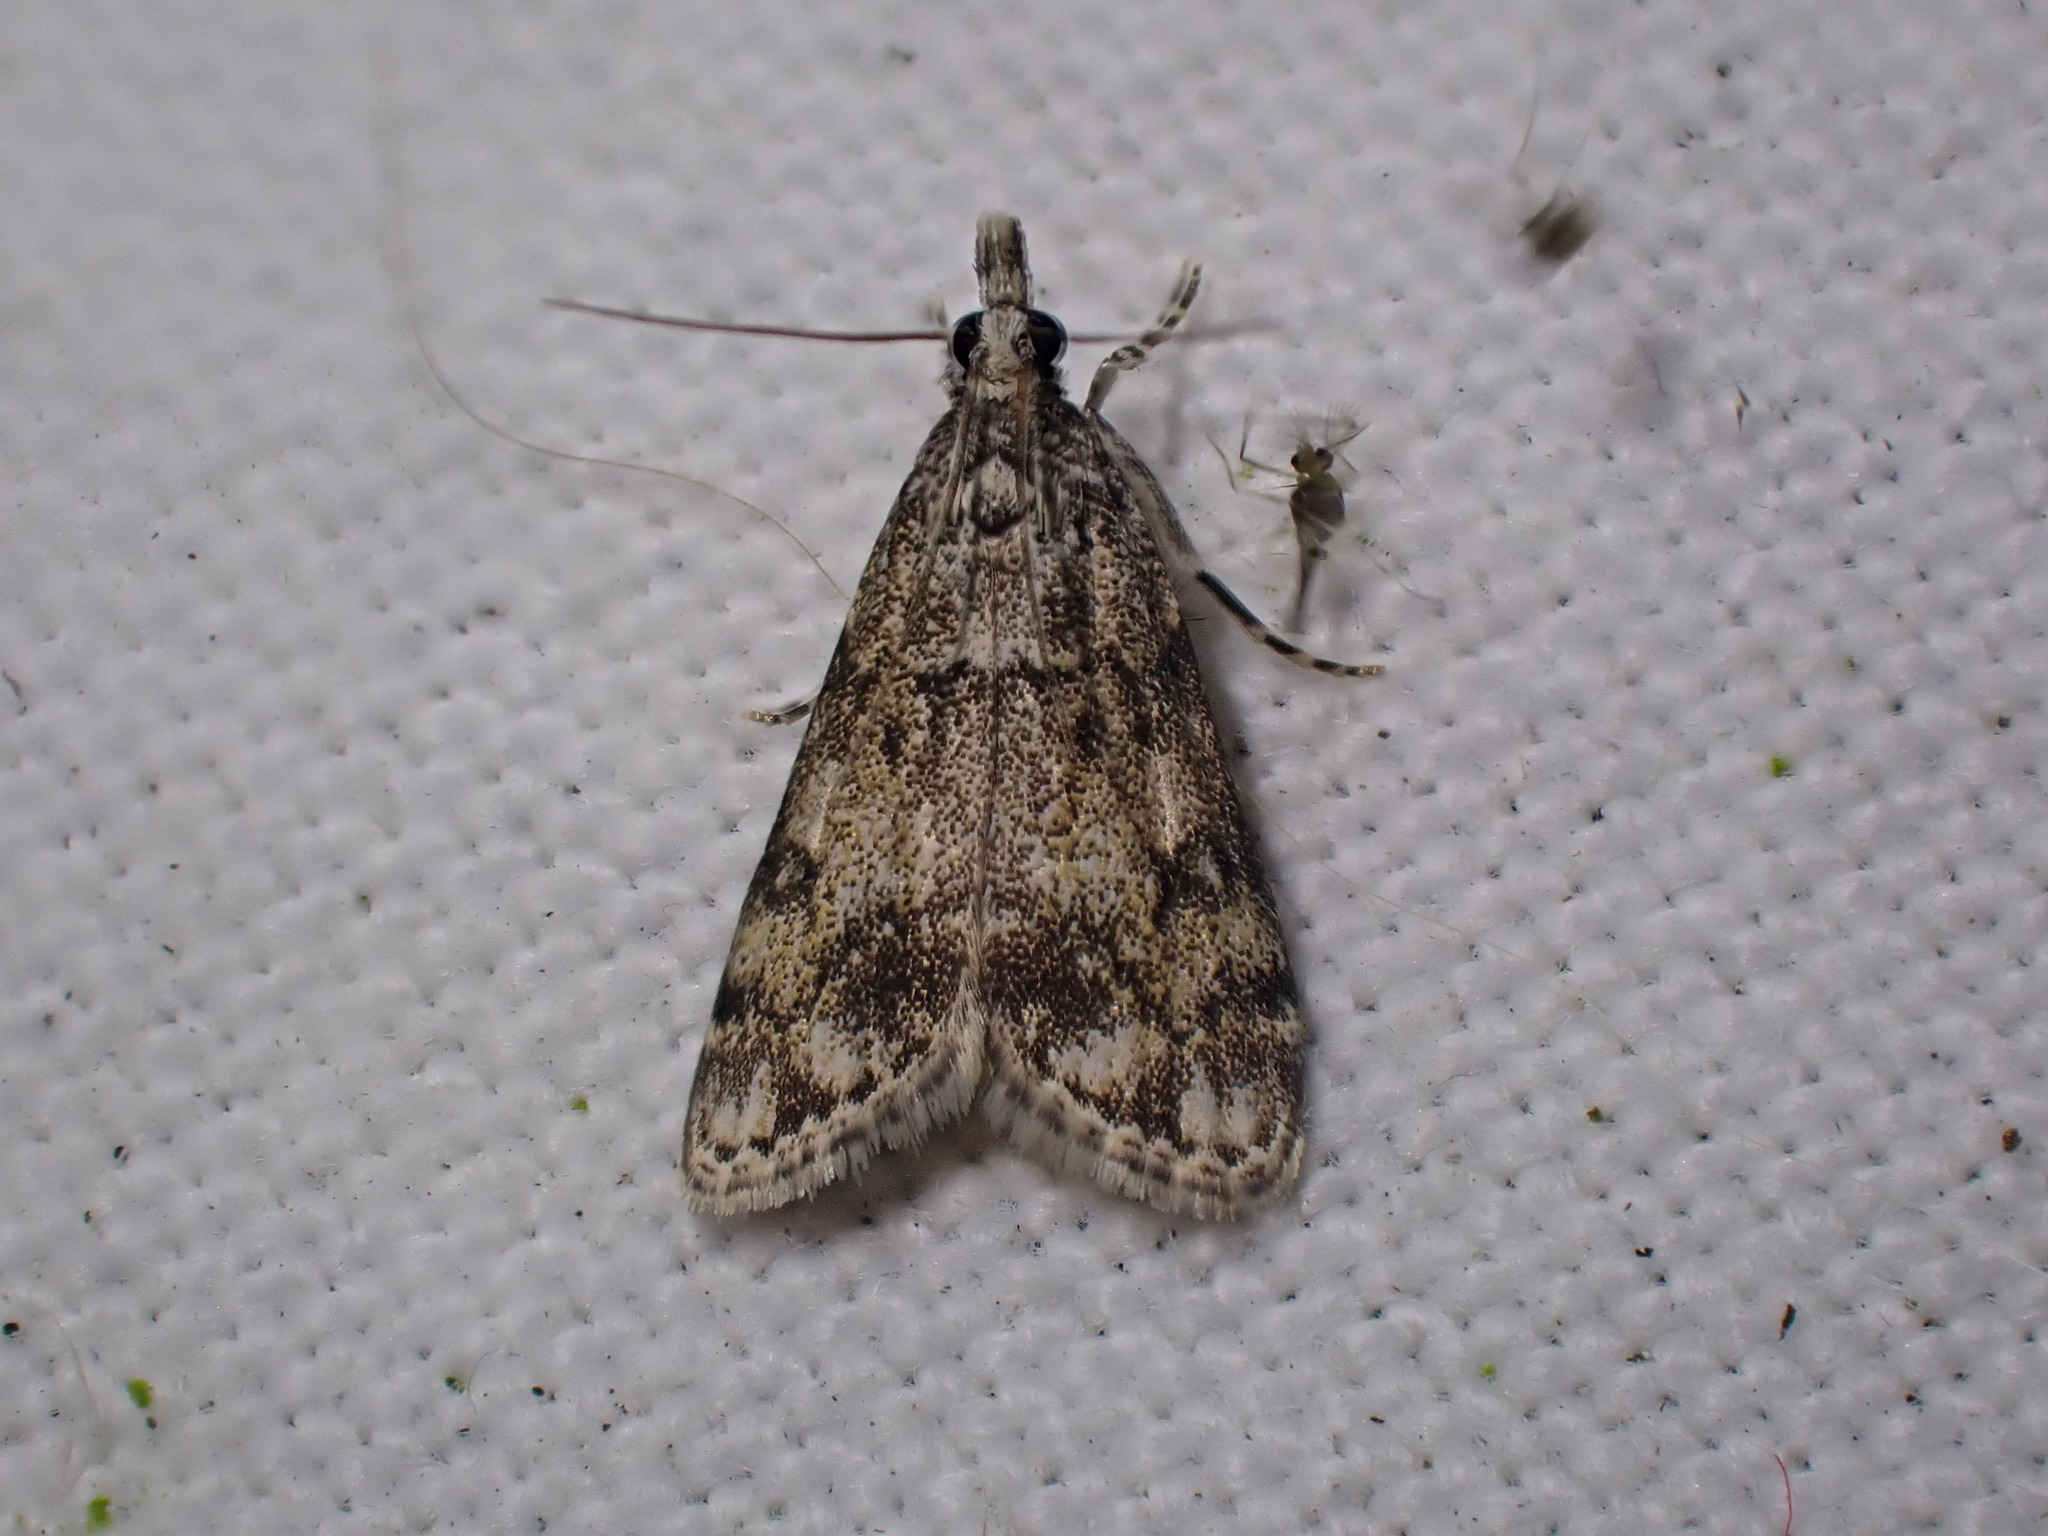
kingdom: Animalia
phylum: Arthropoda
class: Insecta
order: Lepidoptera
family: Crambidae
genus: Eudonia
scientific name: Eudonia lacustrata
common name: Little grey
